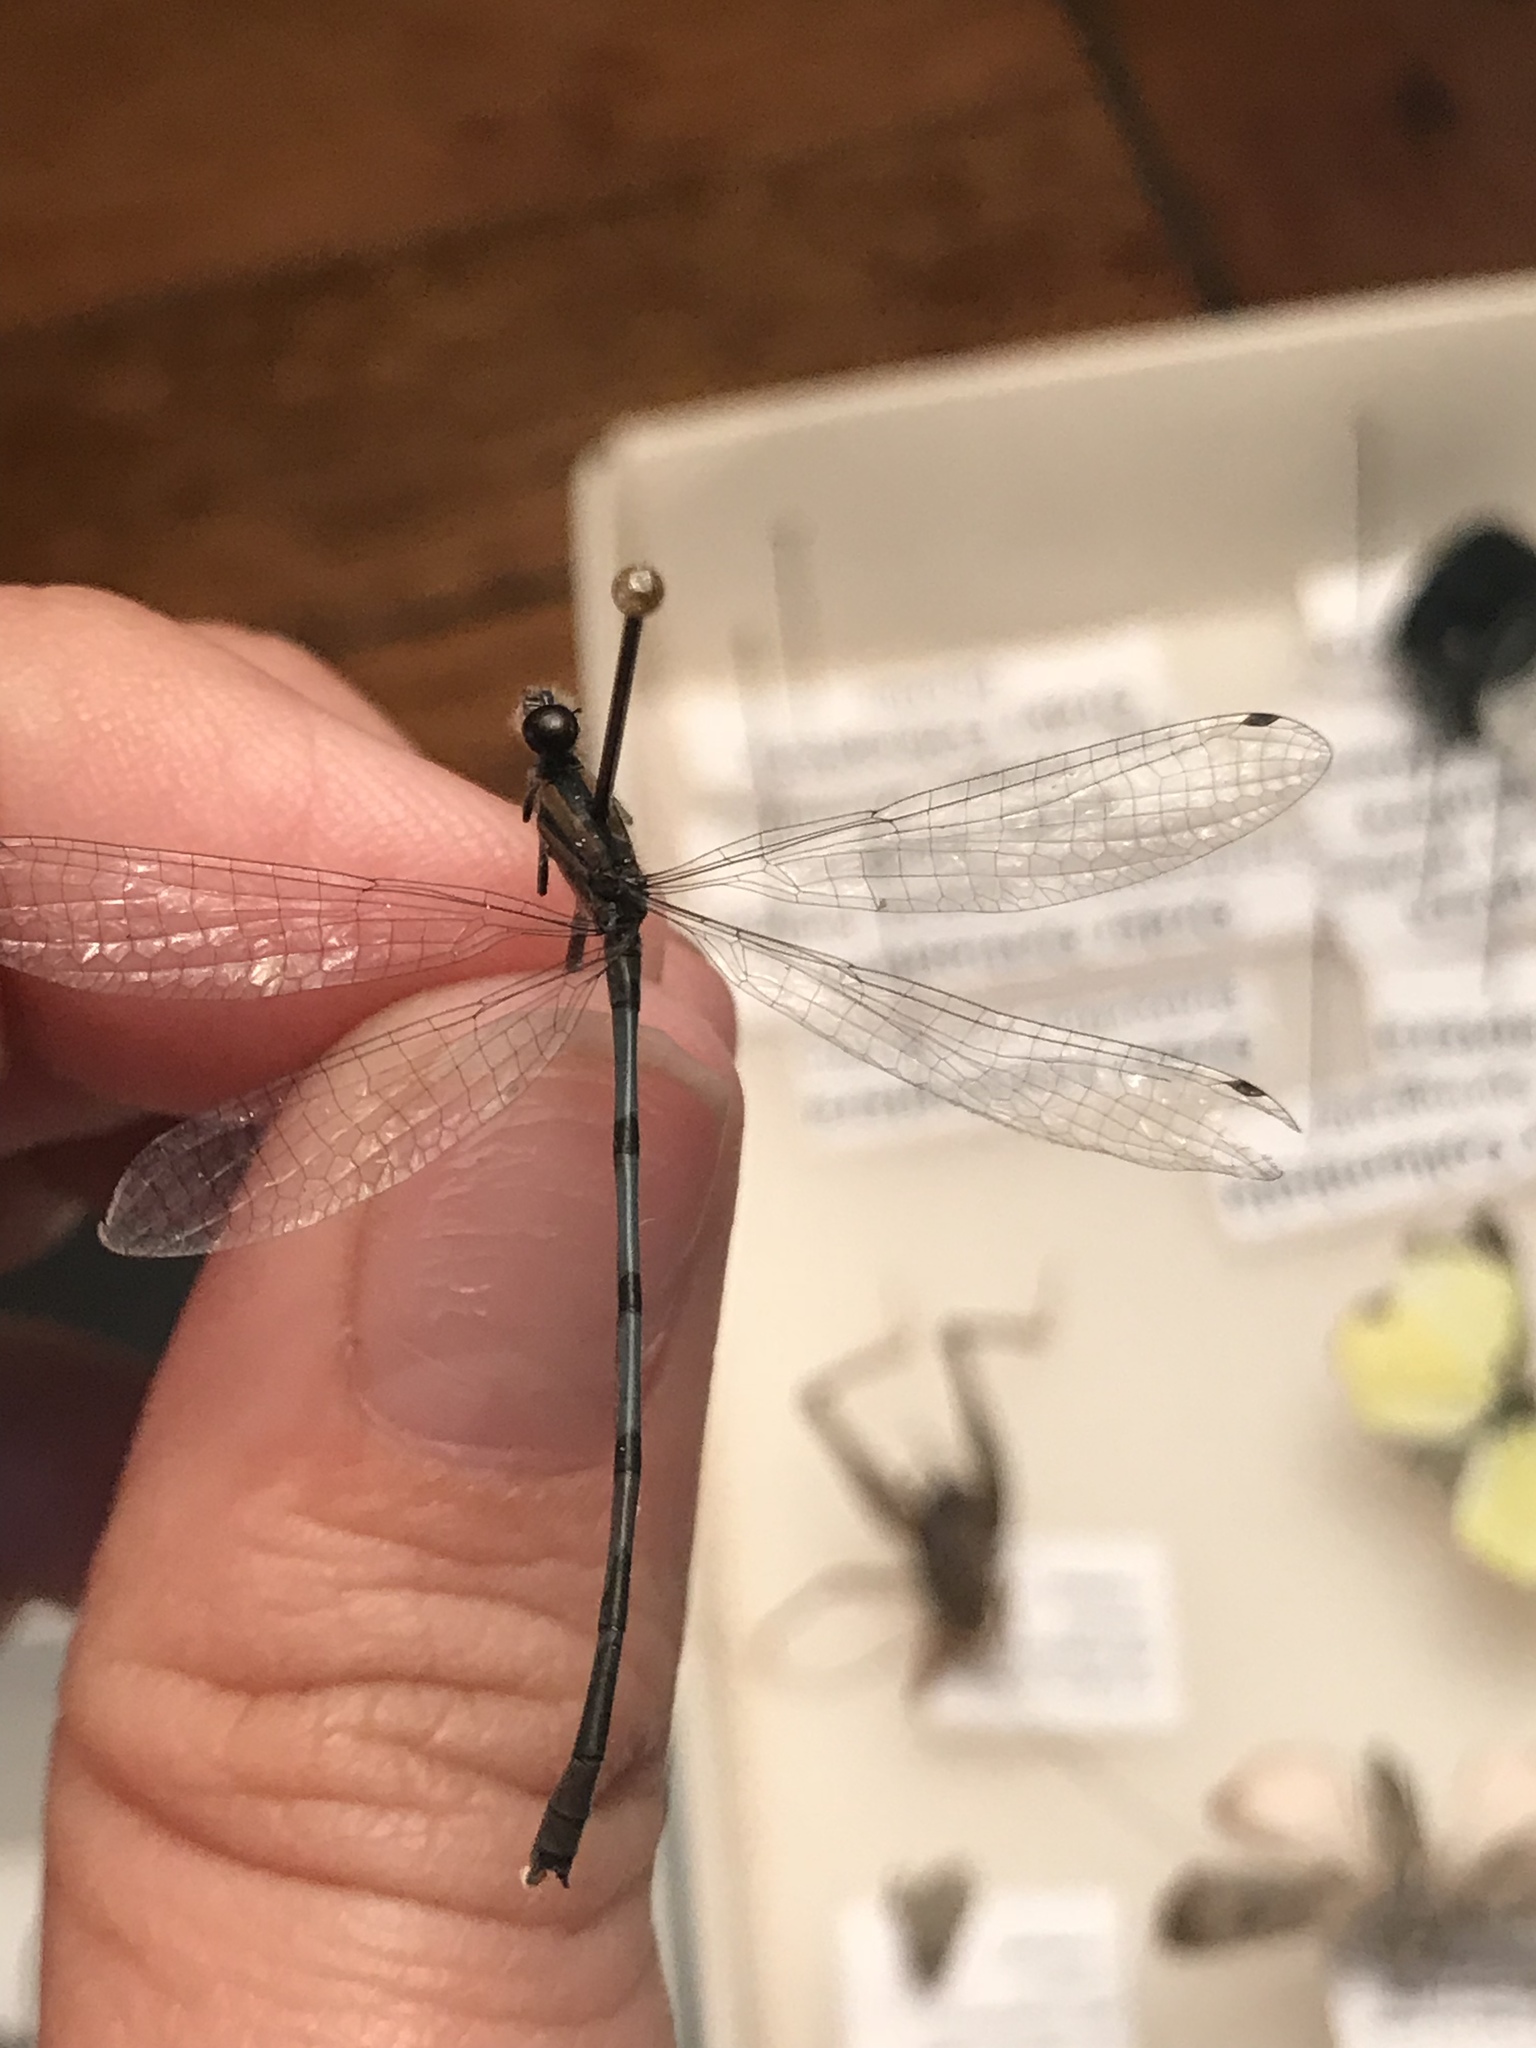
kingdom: Animalia
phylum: Arthropoda
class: Insecta
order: Odonata
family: Coenagrionidae
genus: Enallagma
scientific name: Enallagma civile
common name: Damselfly
